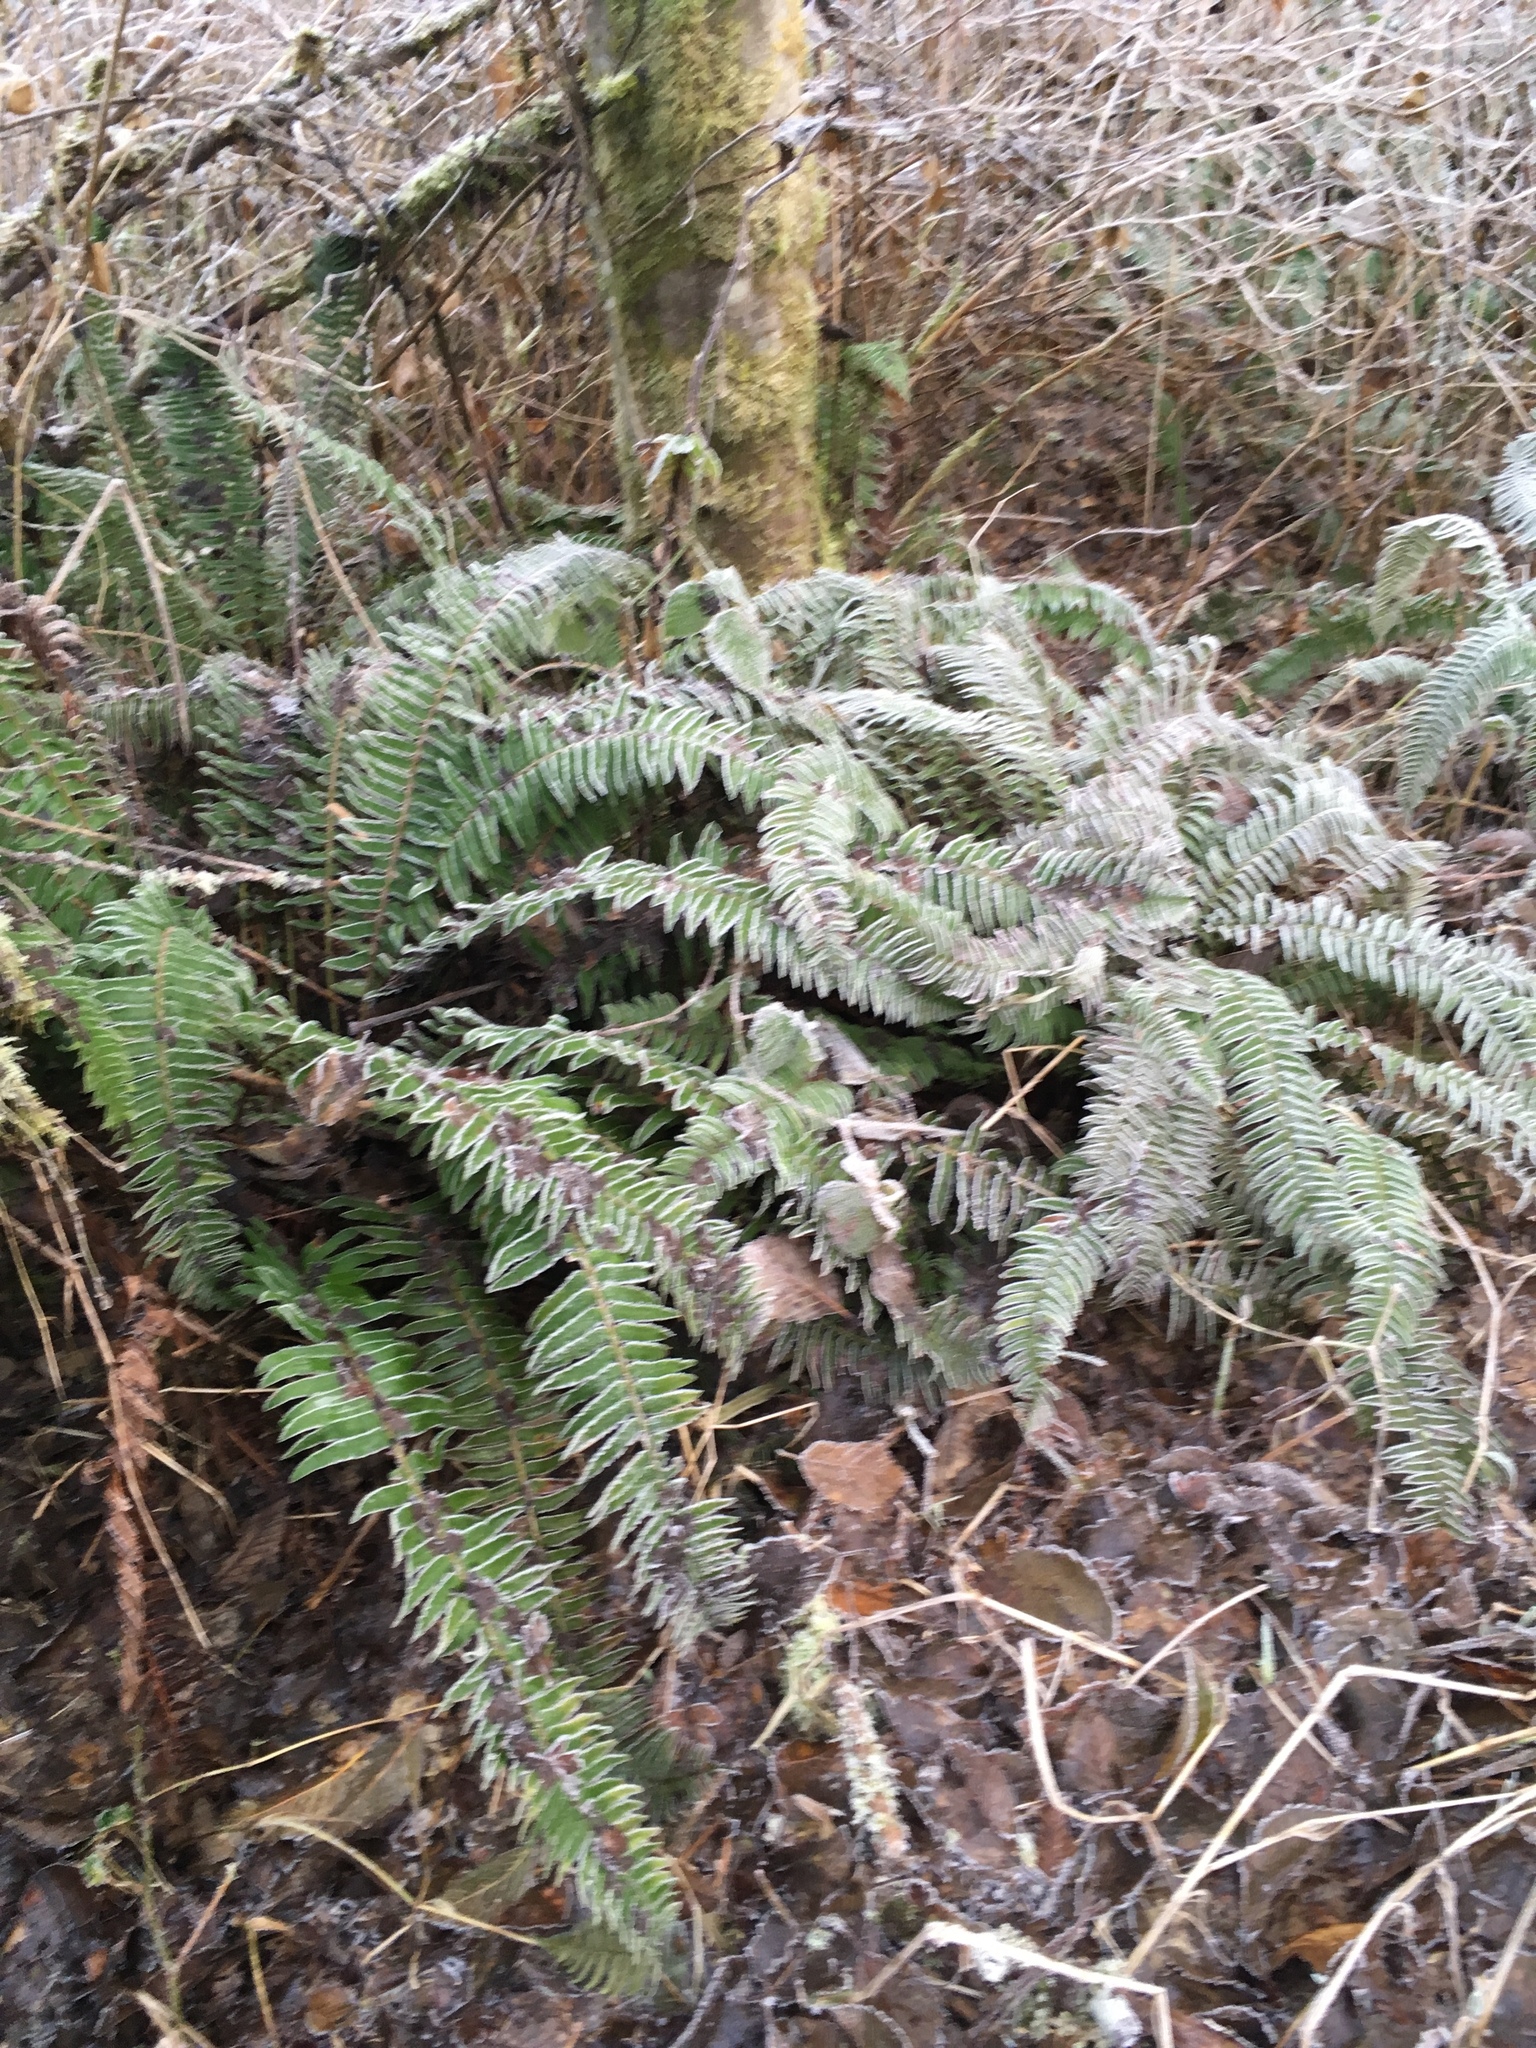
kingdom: Plantae
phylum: Tracheophyta
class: Polypodiopsida
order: Polypodiales
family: Dryopteridaceae
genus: Polystichum
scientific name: Polystichum munitum
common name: Western sword-fern
